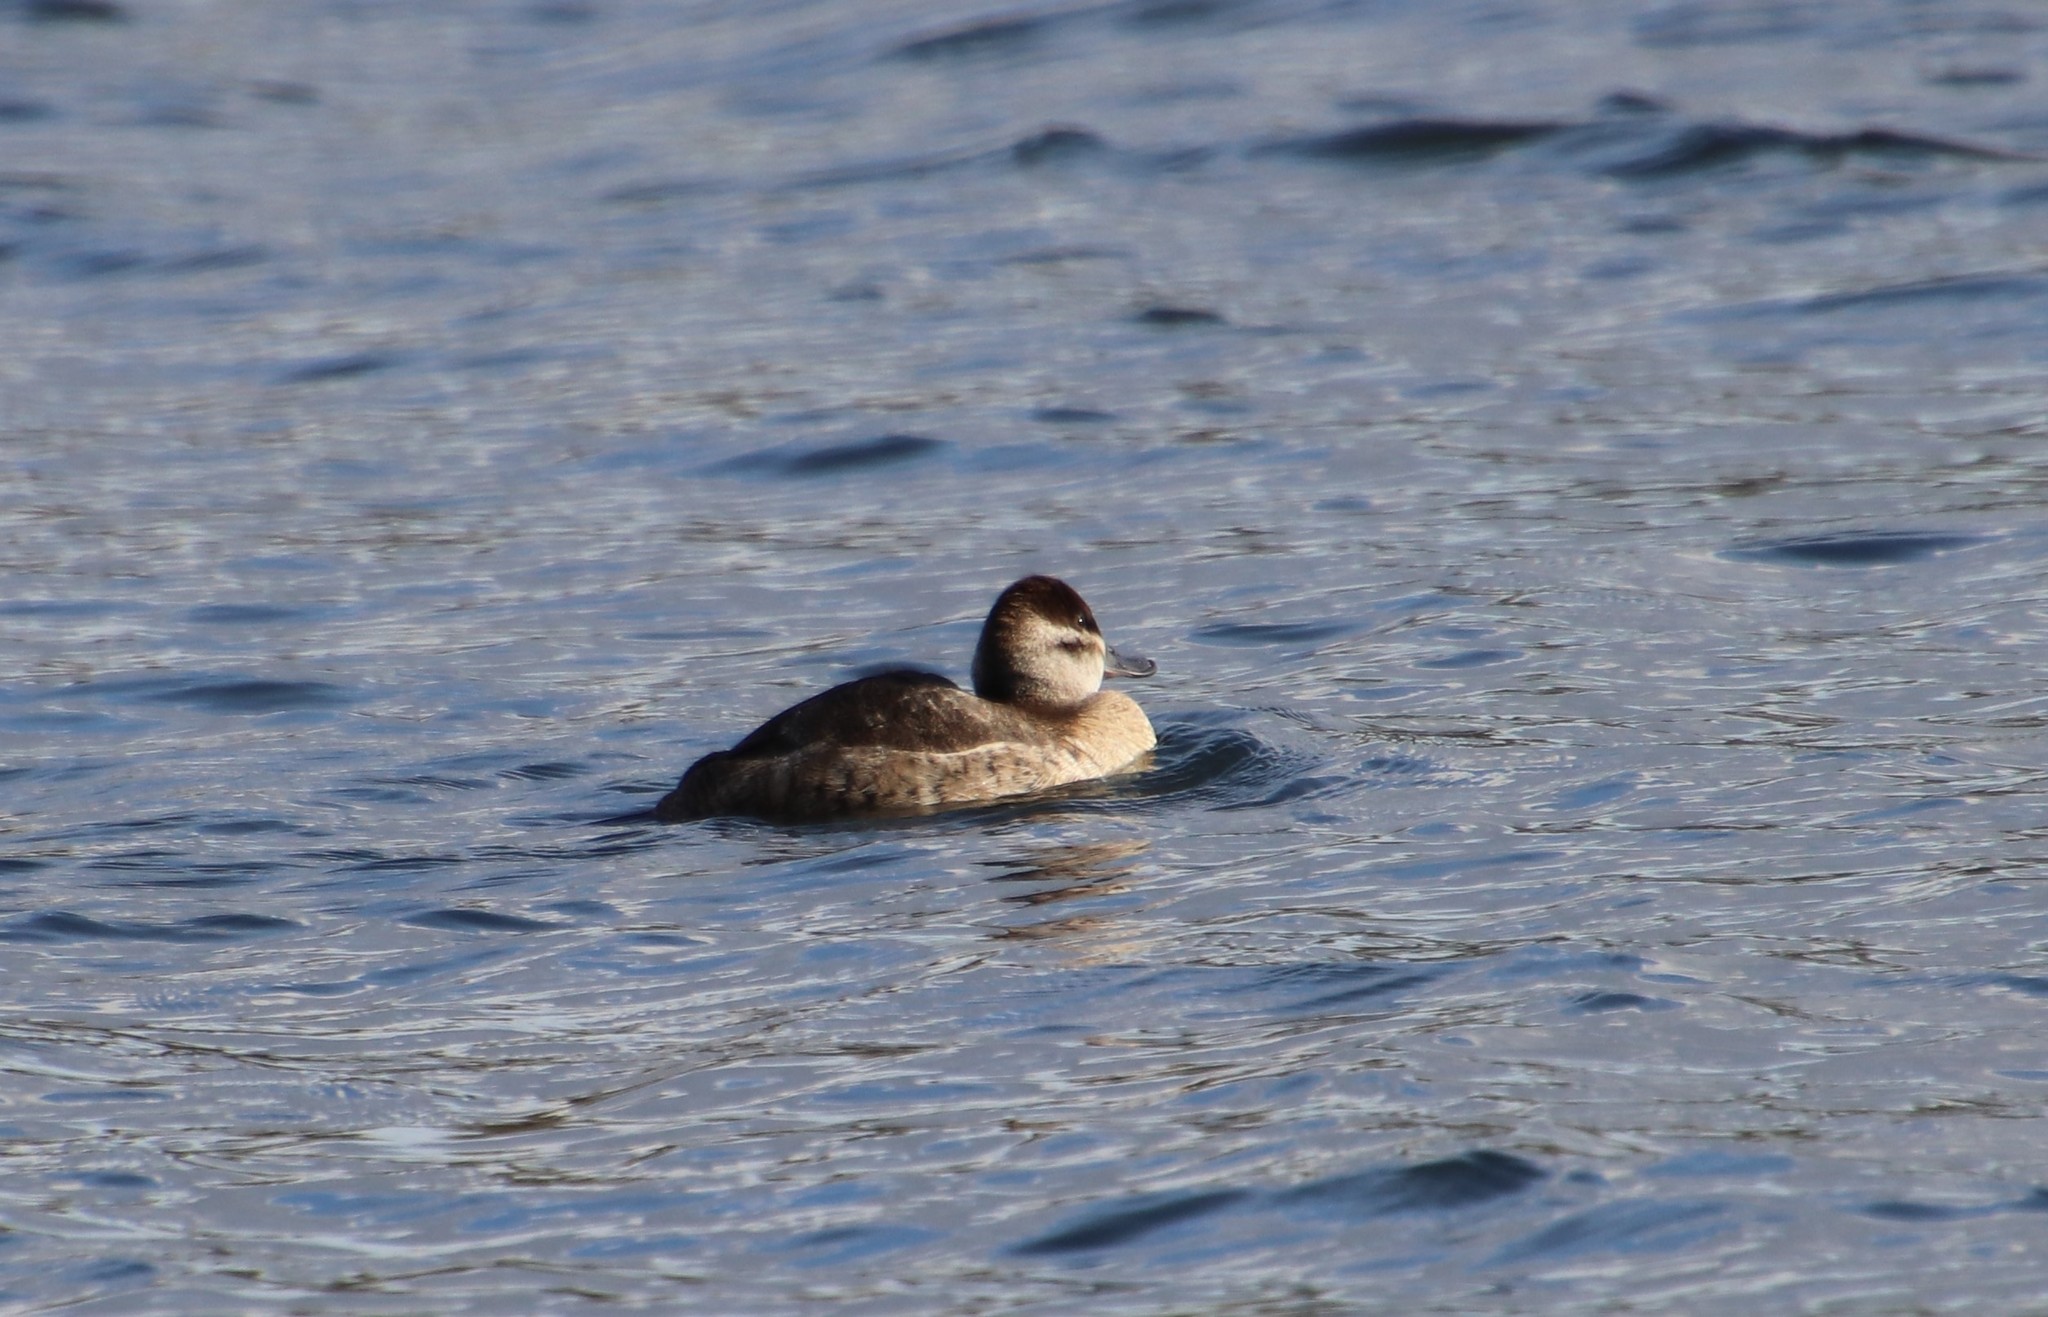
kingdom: Animalia
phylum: Chordata
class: Aves
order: Anseriformes
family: Anatidae
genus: Oxyura
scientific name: Oxyura jamaicensis
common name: Ruddy duck
